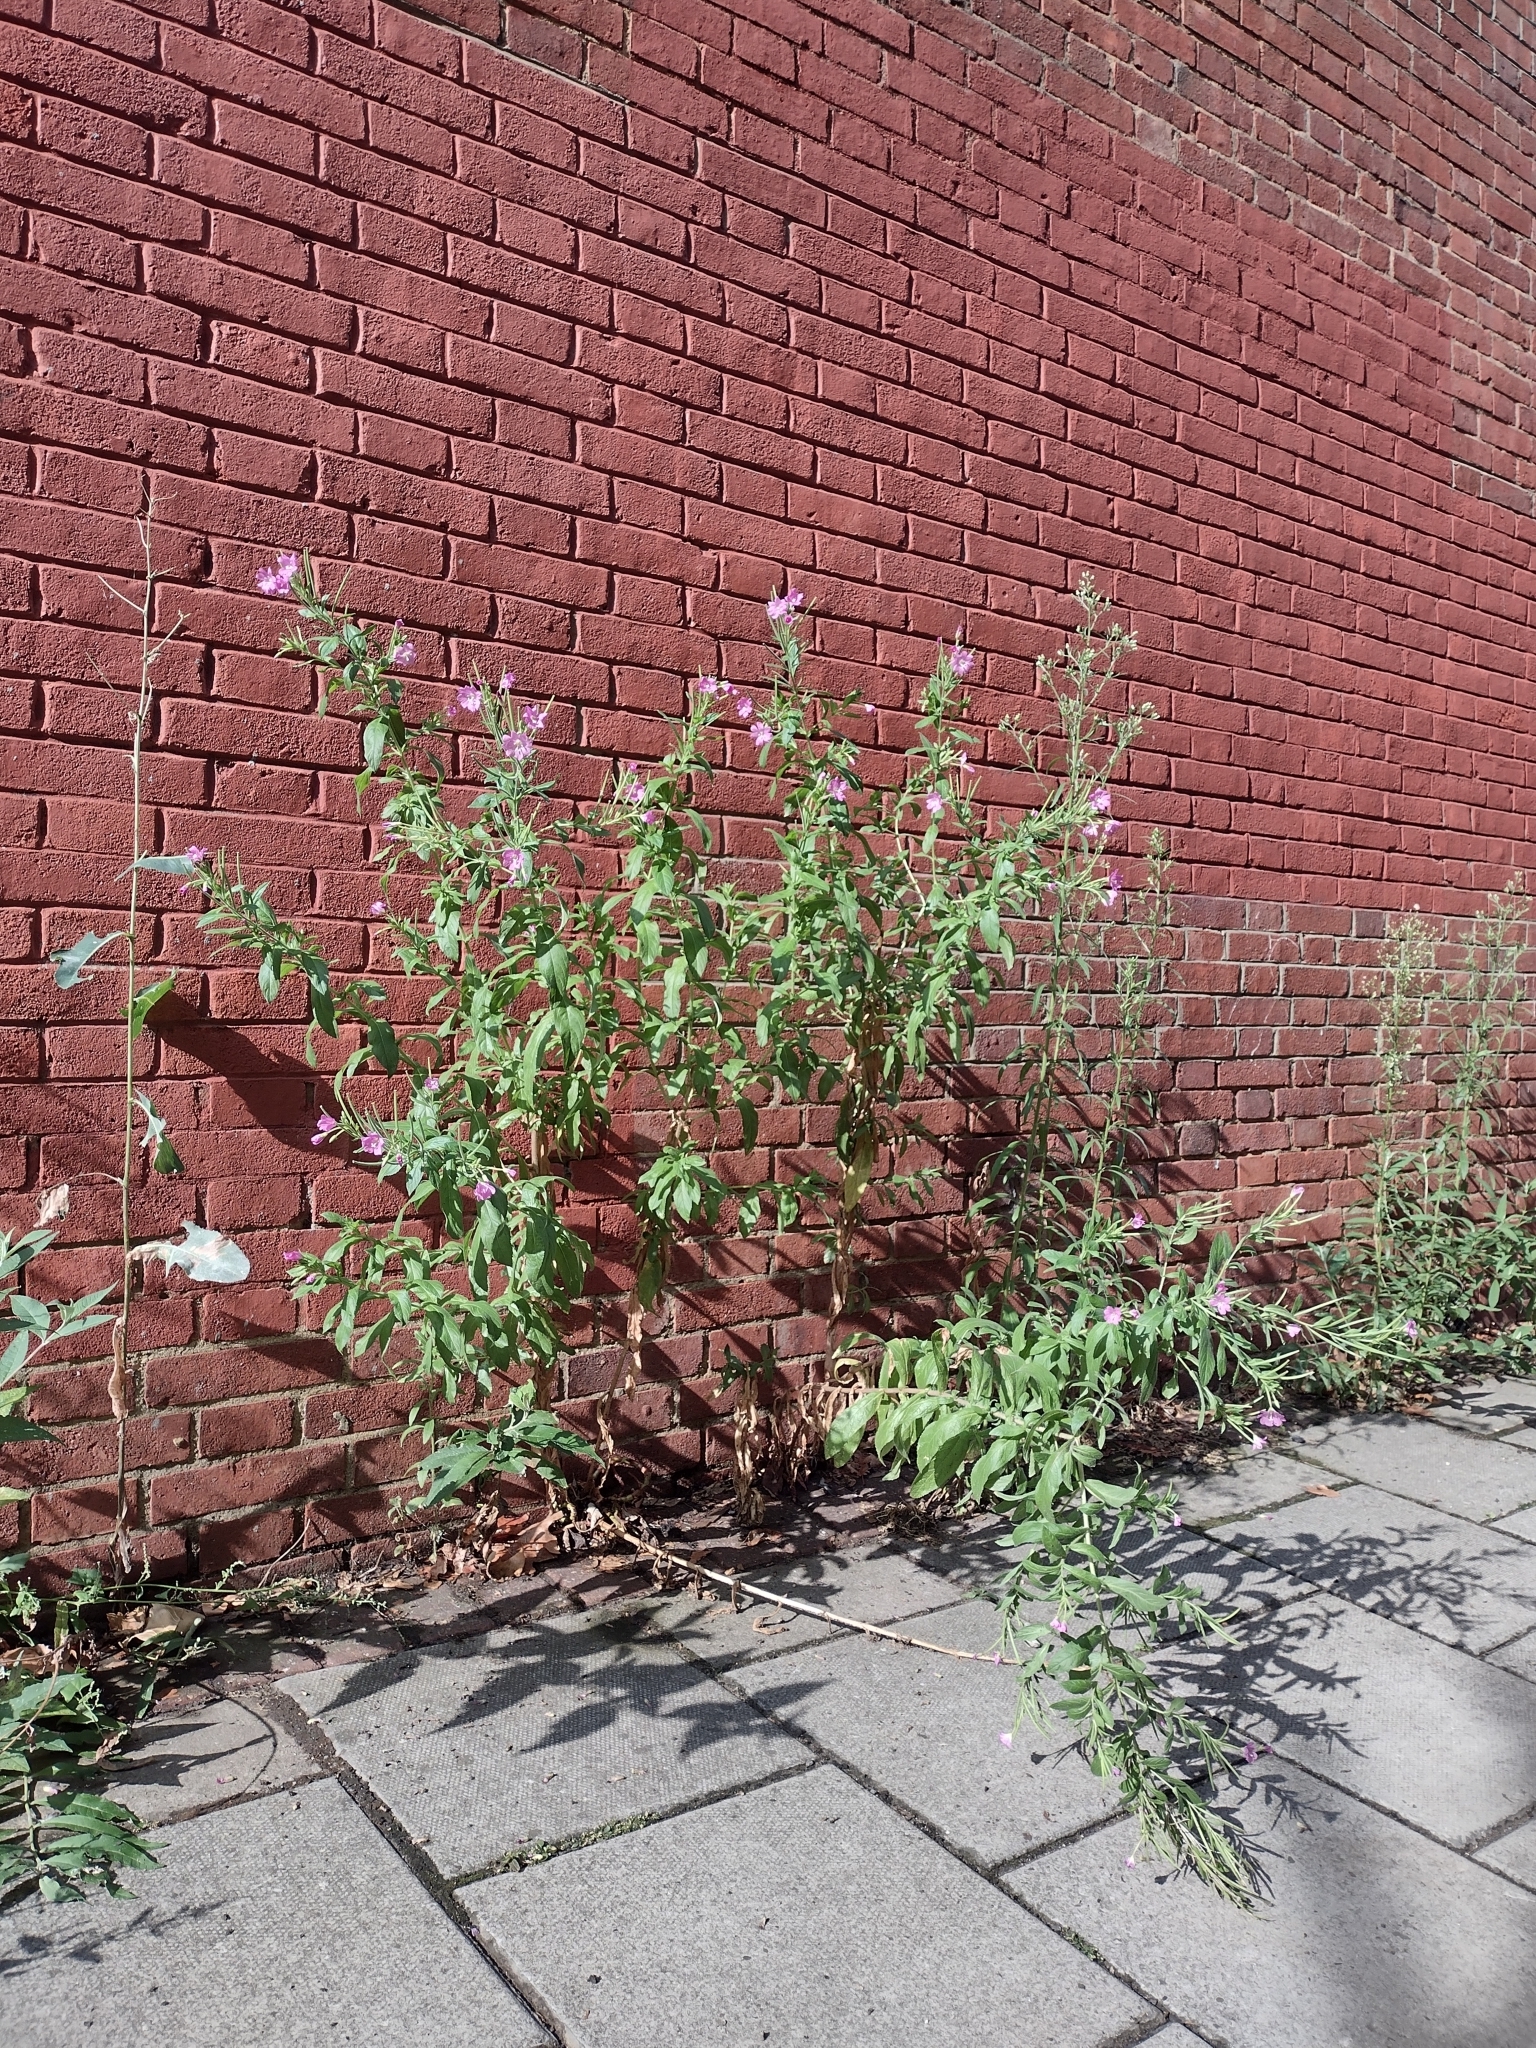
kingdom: Plantae
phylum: Tracheophyta
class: Magnoliopsida
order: Myrtales
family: Onagraceae
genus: Epilobium
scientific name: Epilobium hirsutum
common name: Great willowherb
